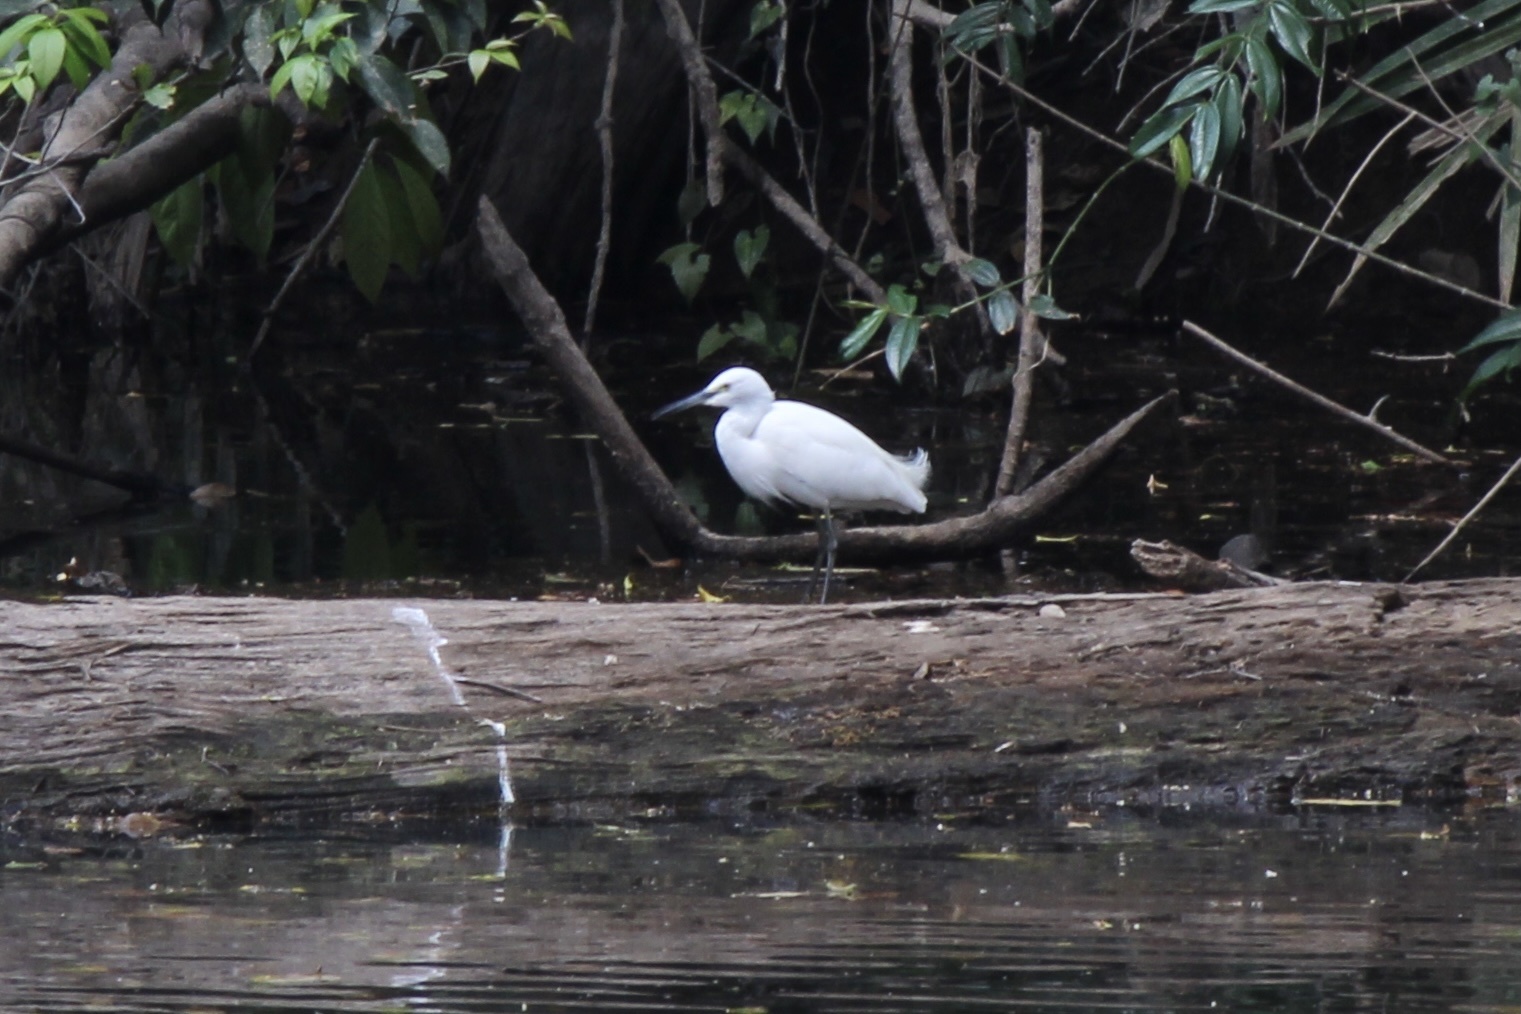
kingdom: Animalia
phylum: Chordata
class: Aves
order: Pelecaniformes
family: Ardeidae
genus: Egretta
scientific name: Egretta garzetta
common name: Little egret
